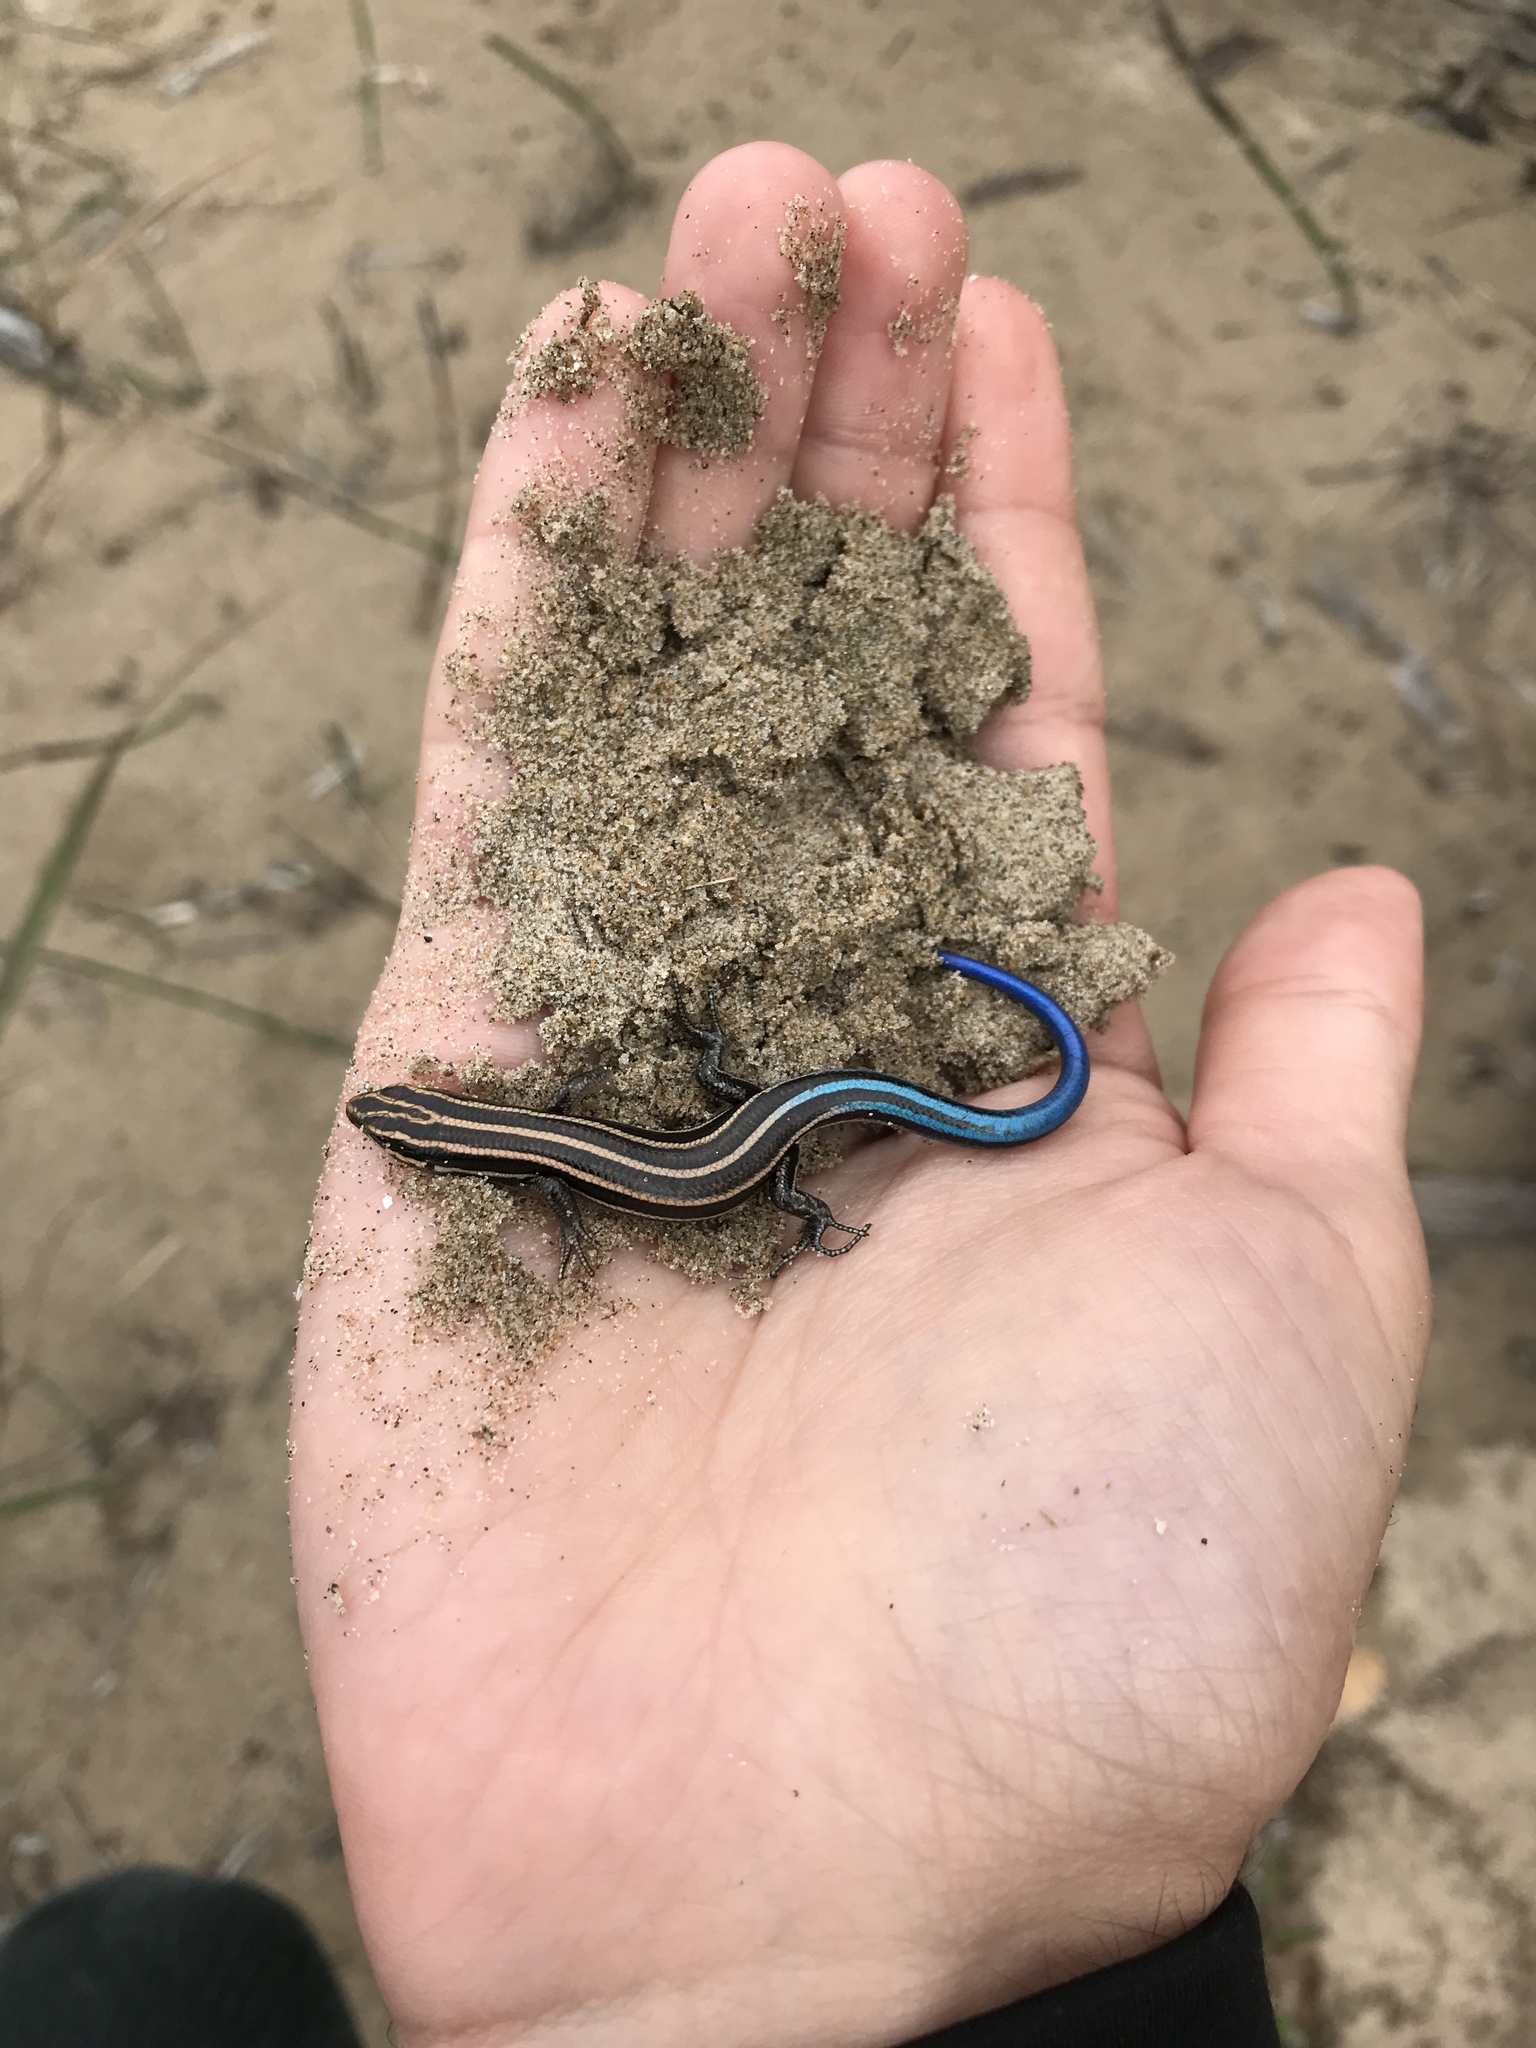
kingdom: Animalia
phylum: Chordata
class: Squamata
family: Scincidae
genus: Plestiodon
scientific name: Plestiodon fasciatus
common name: Five-lined skink
